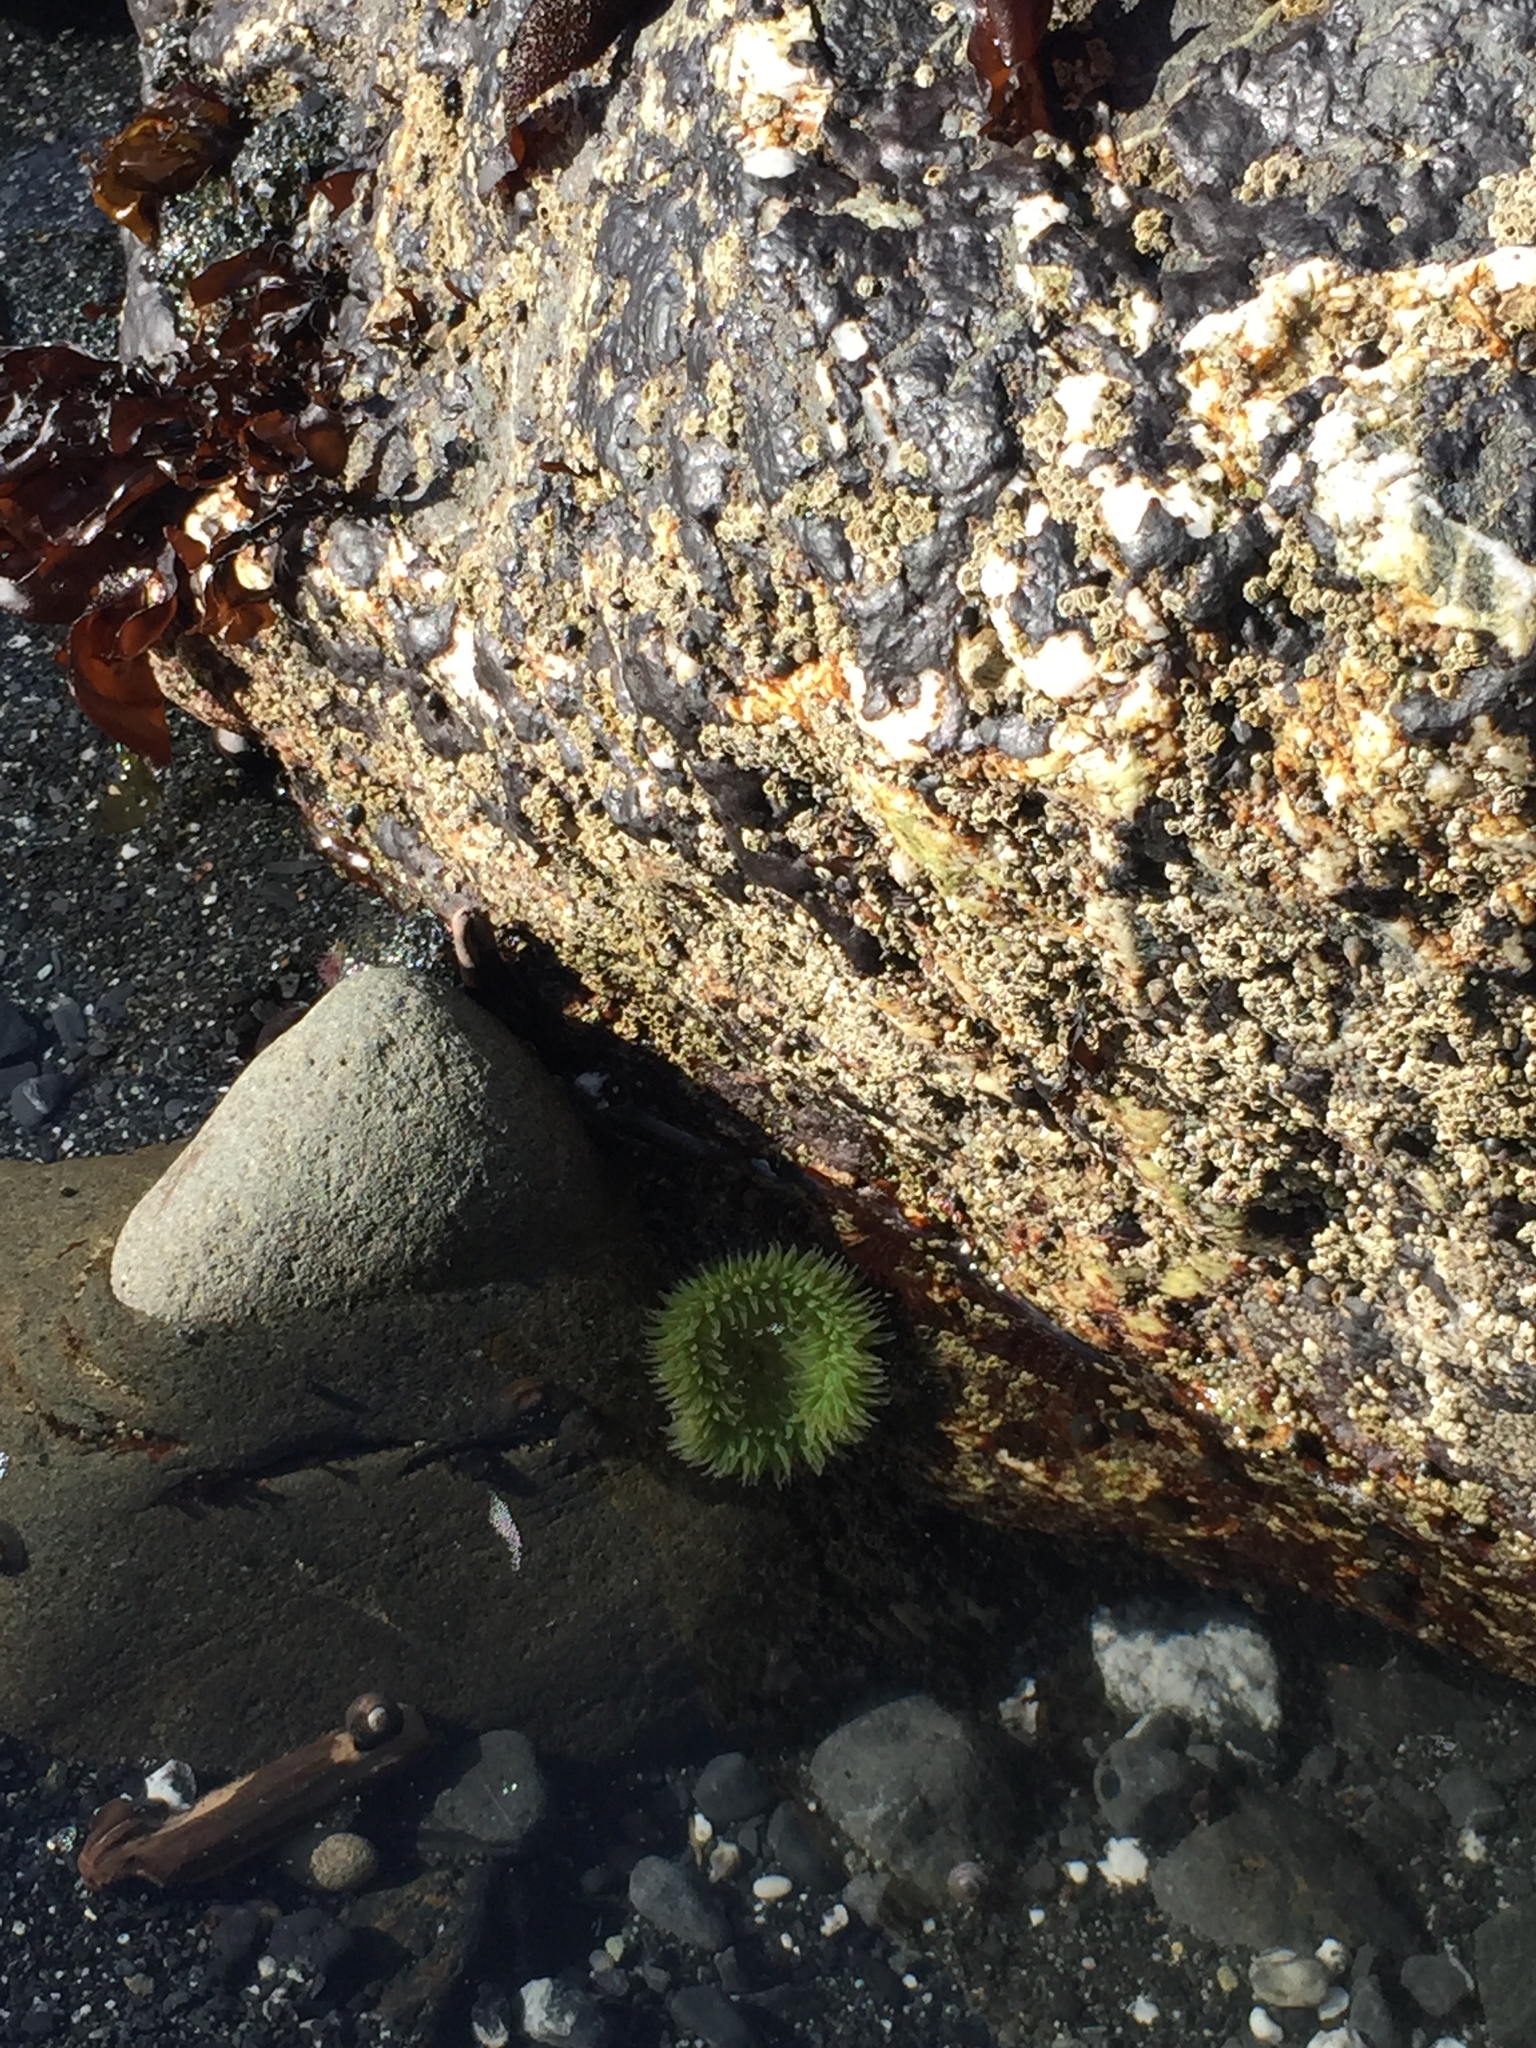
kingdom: Animalia
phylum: Cnidaria
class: Anthozoa
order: Actiniaria
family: Actiniidae
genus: Anthopleura
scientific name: Anthopleura xanthogrammica
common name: Giant green anemone
